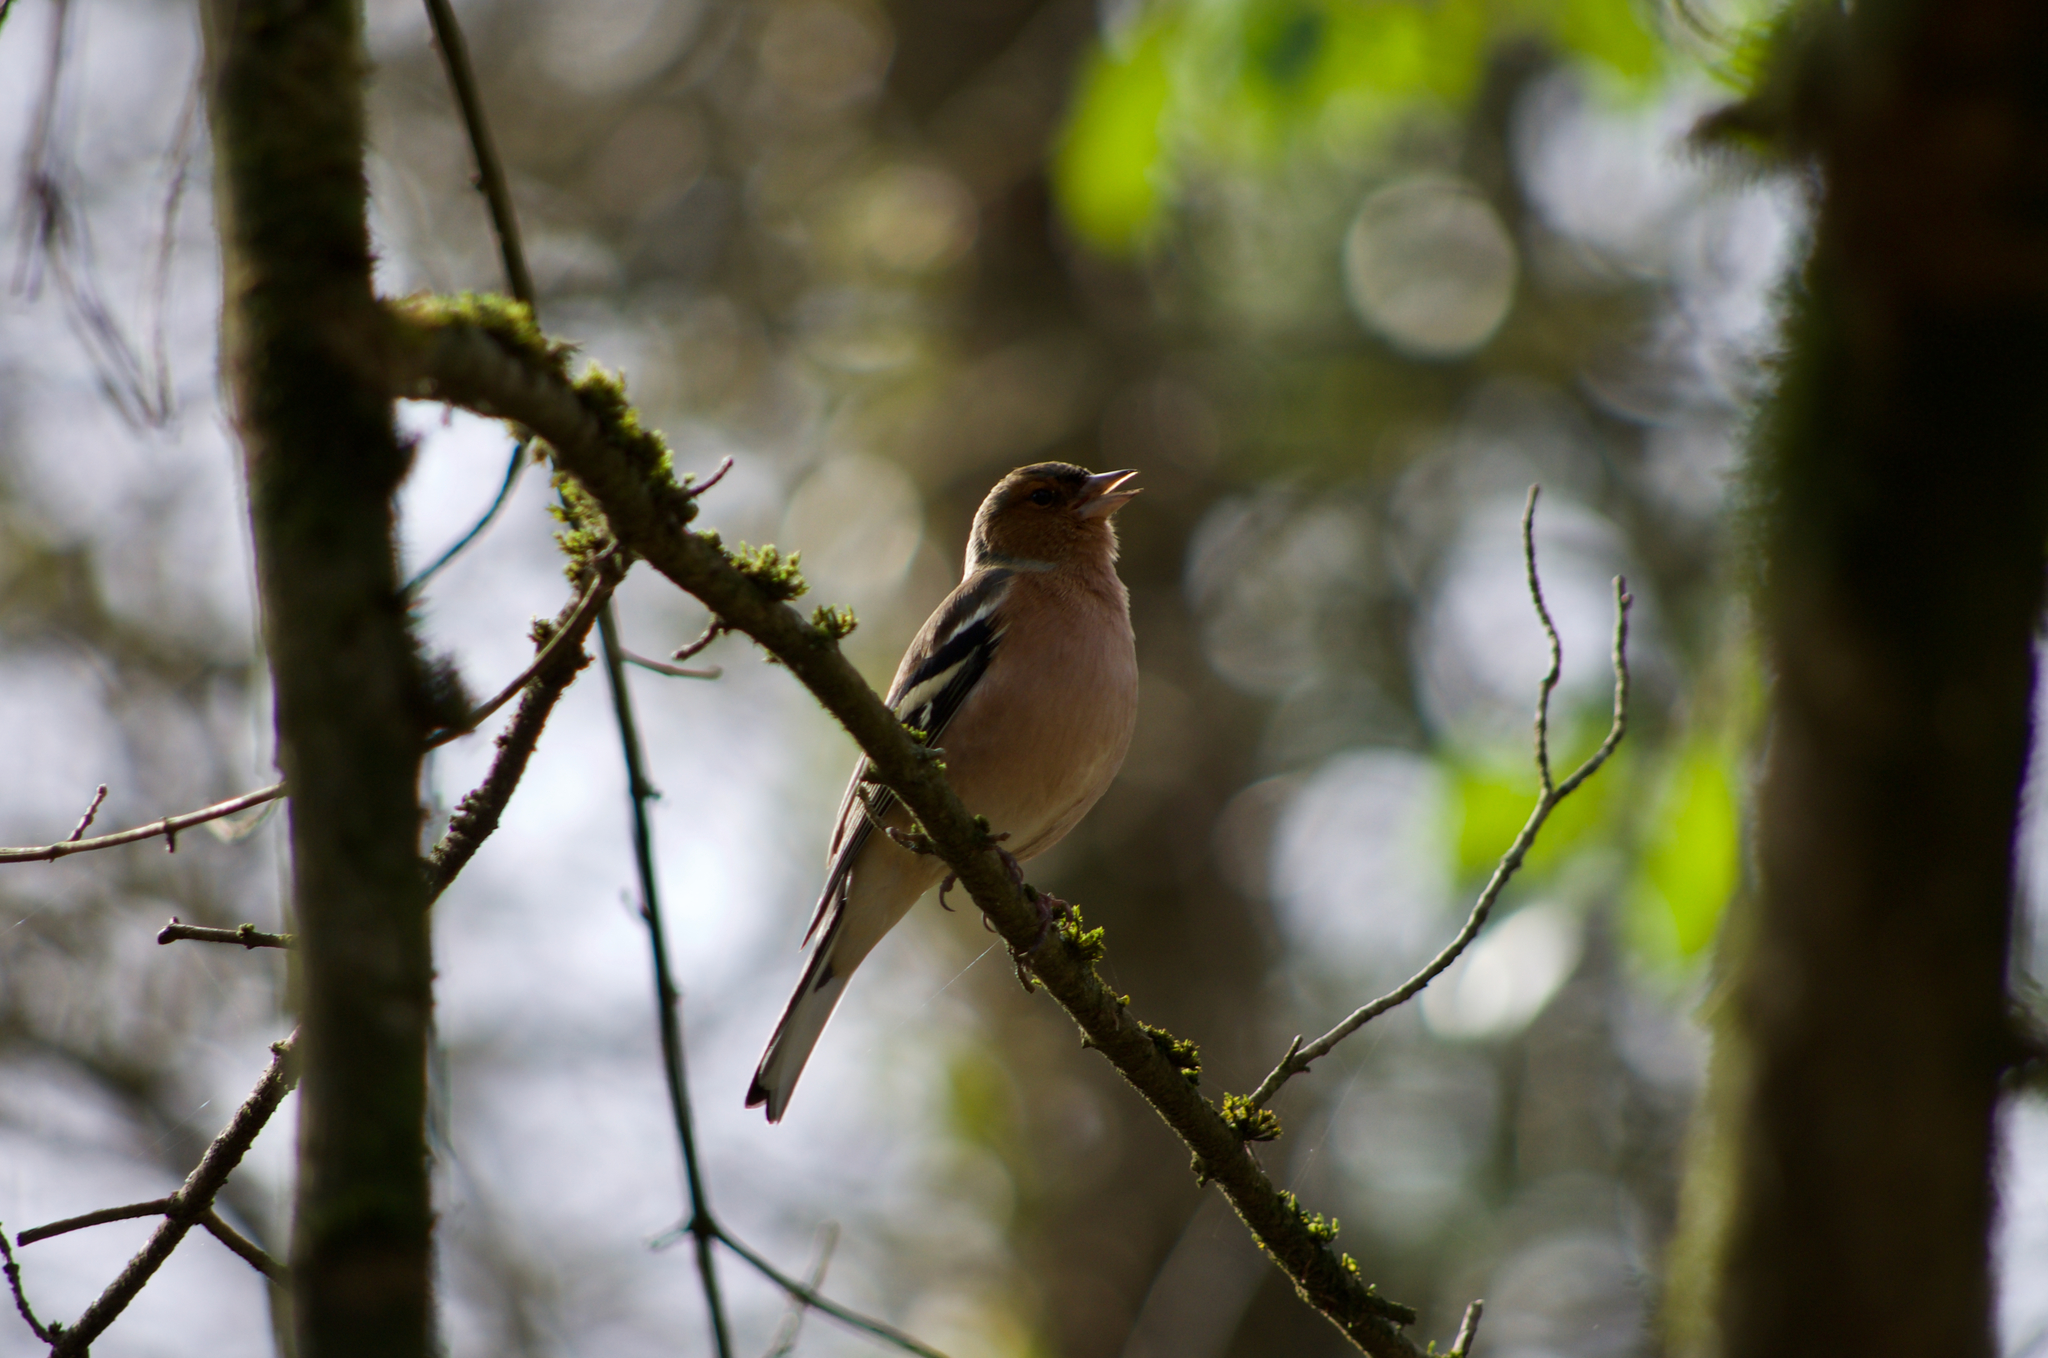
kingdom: Animalia
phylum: Chordata
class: Aves
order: Passeriformes
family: Fringillidae
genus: Fringilla
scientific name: Fringilla coelebs
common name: Common chaffinch
